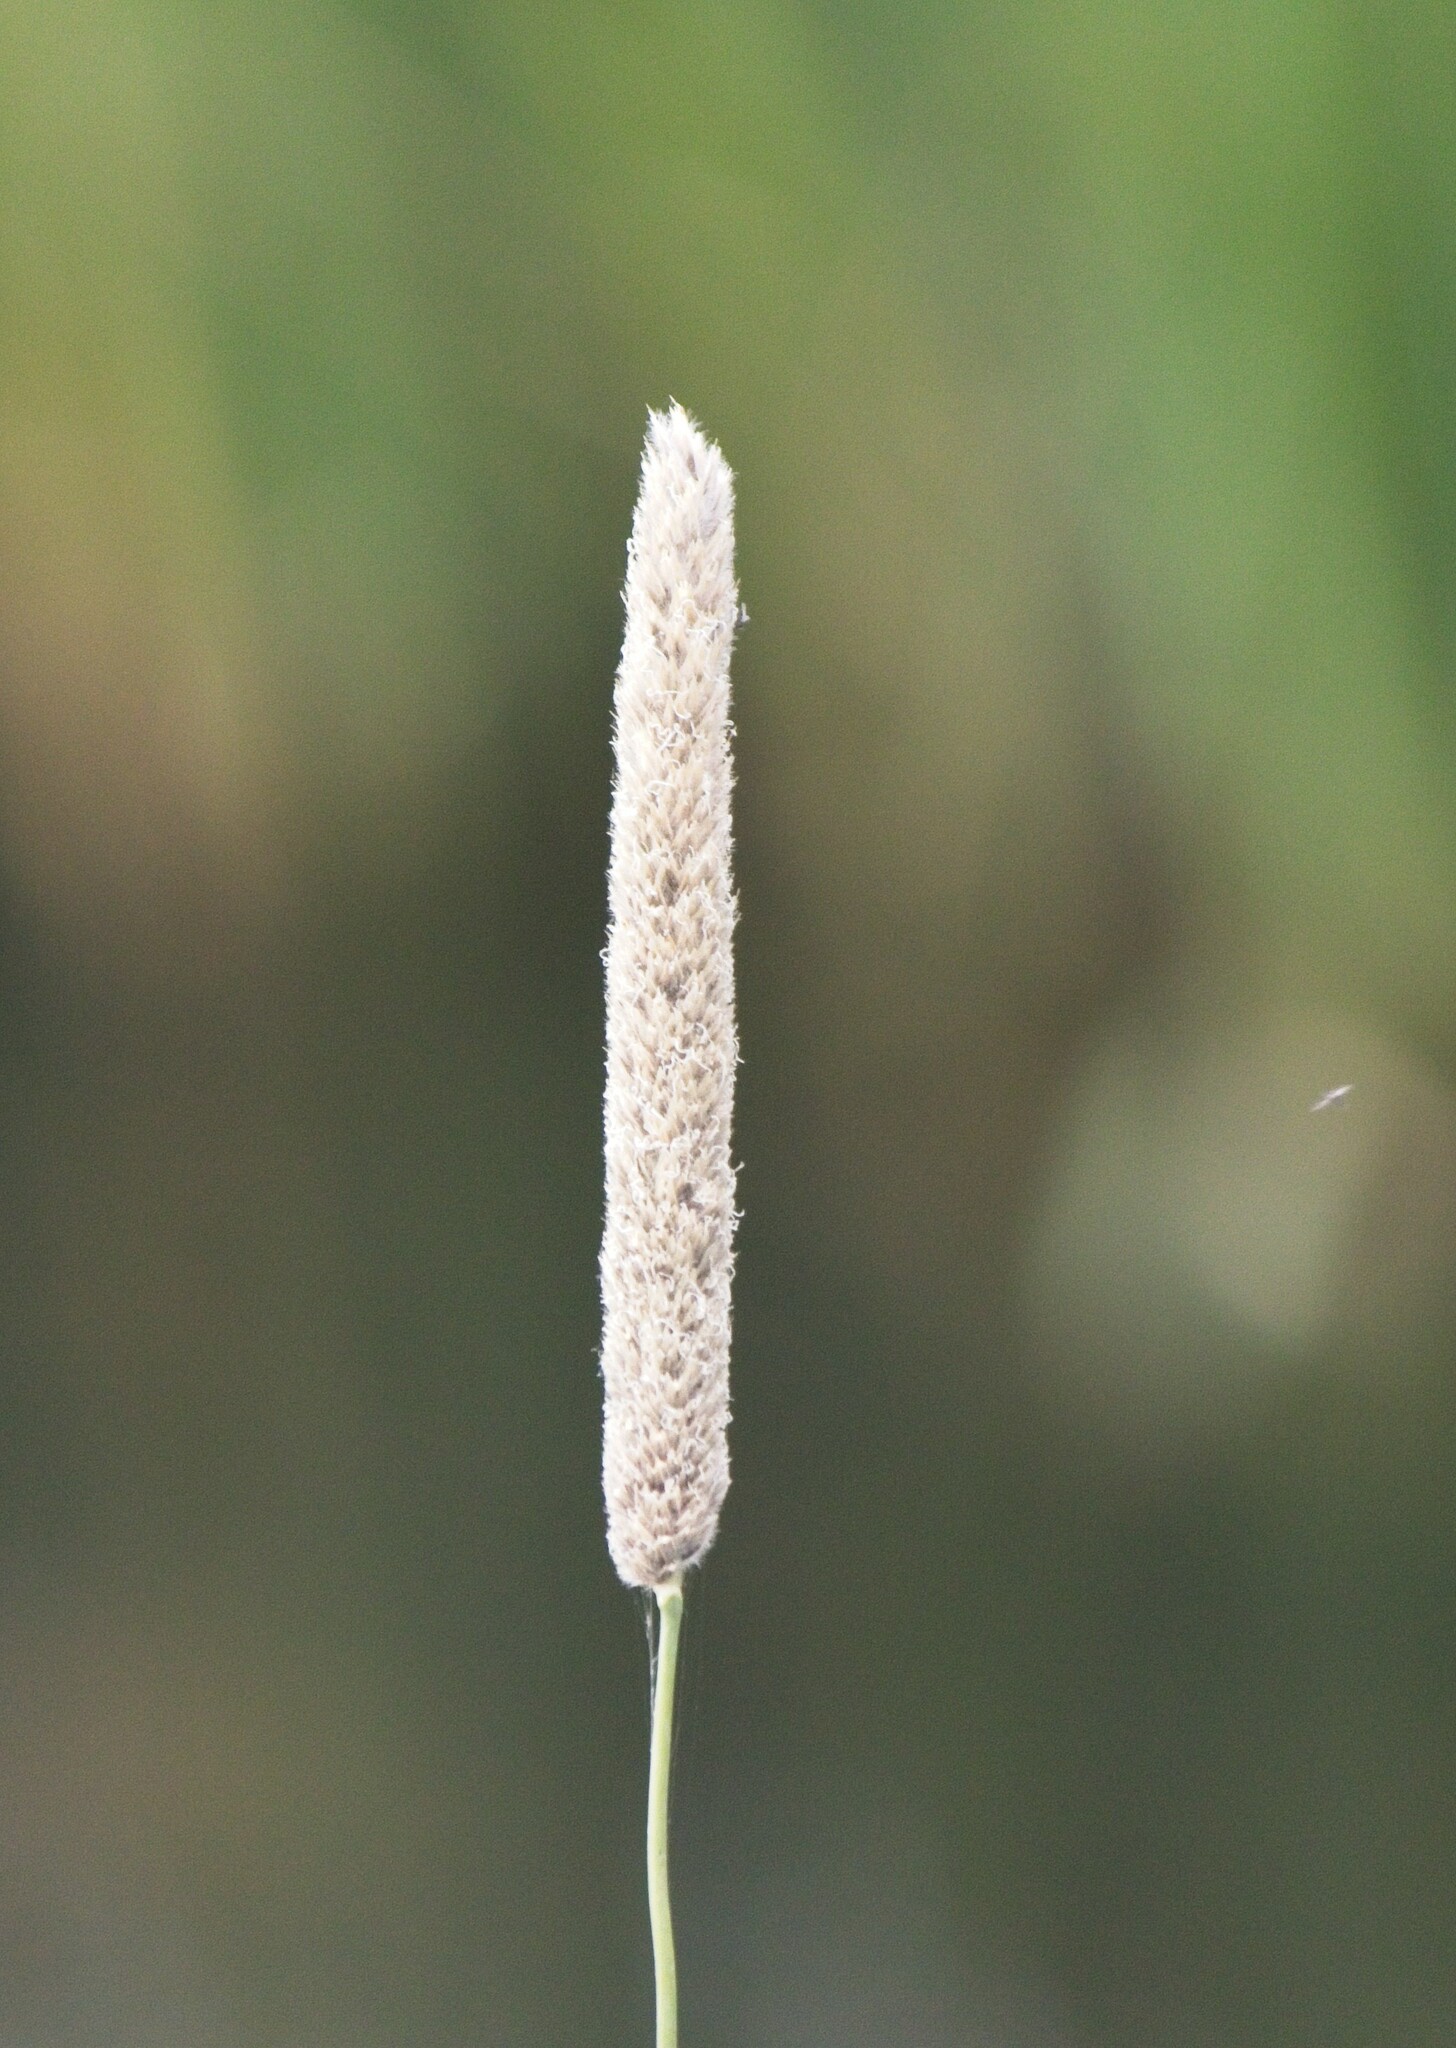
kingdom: Plantae
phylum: Tracheophyta
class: Liliopsida
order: Poales
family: Poaceae
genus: Alopecurus
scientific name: Alopecurus arundinaceus
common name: Creeping meadow foxtail
